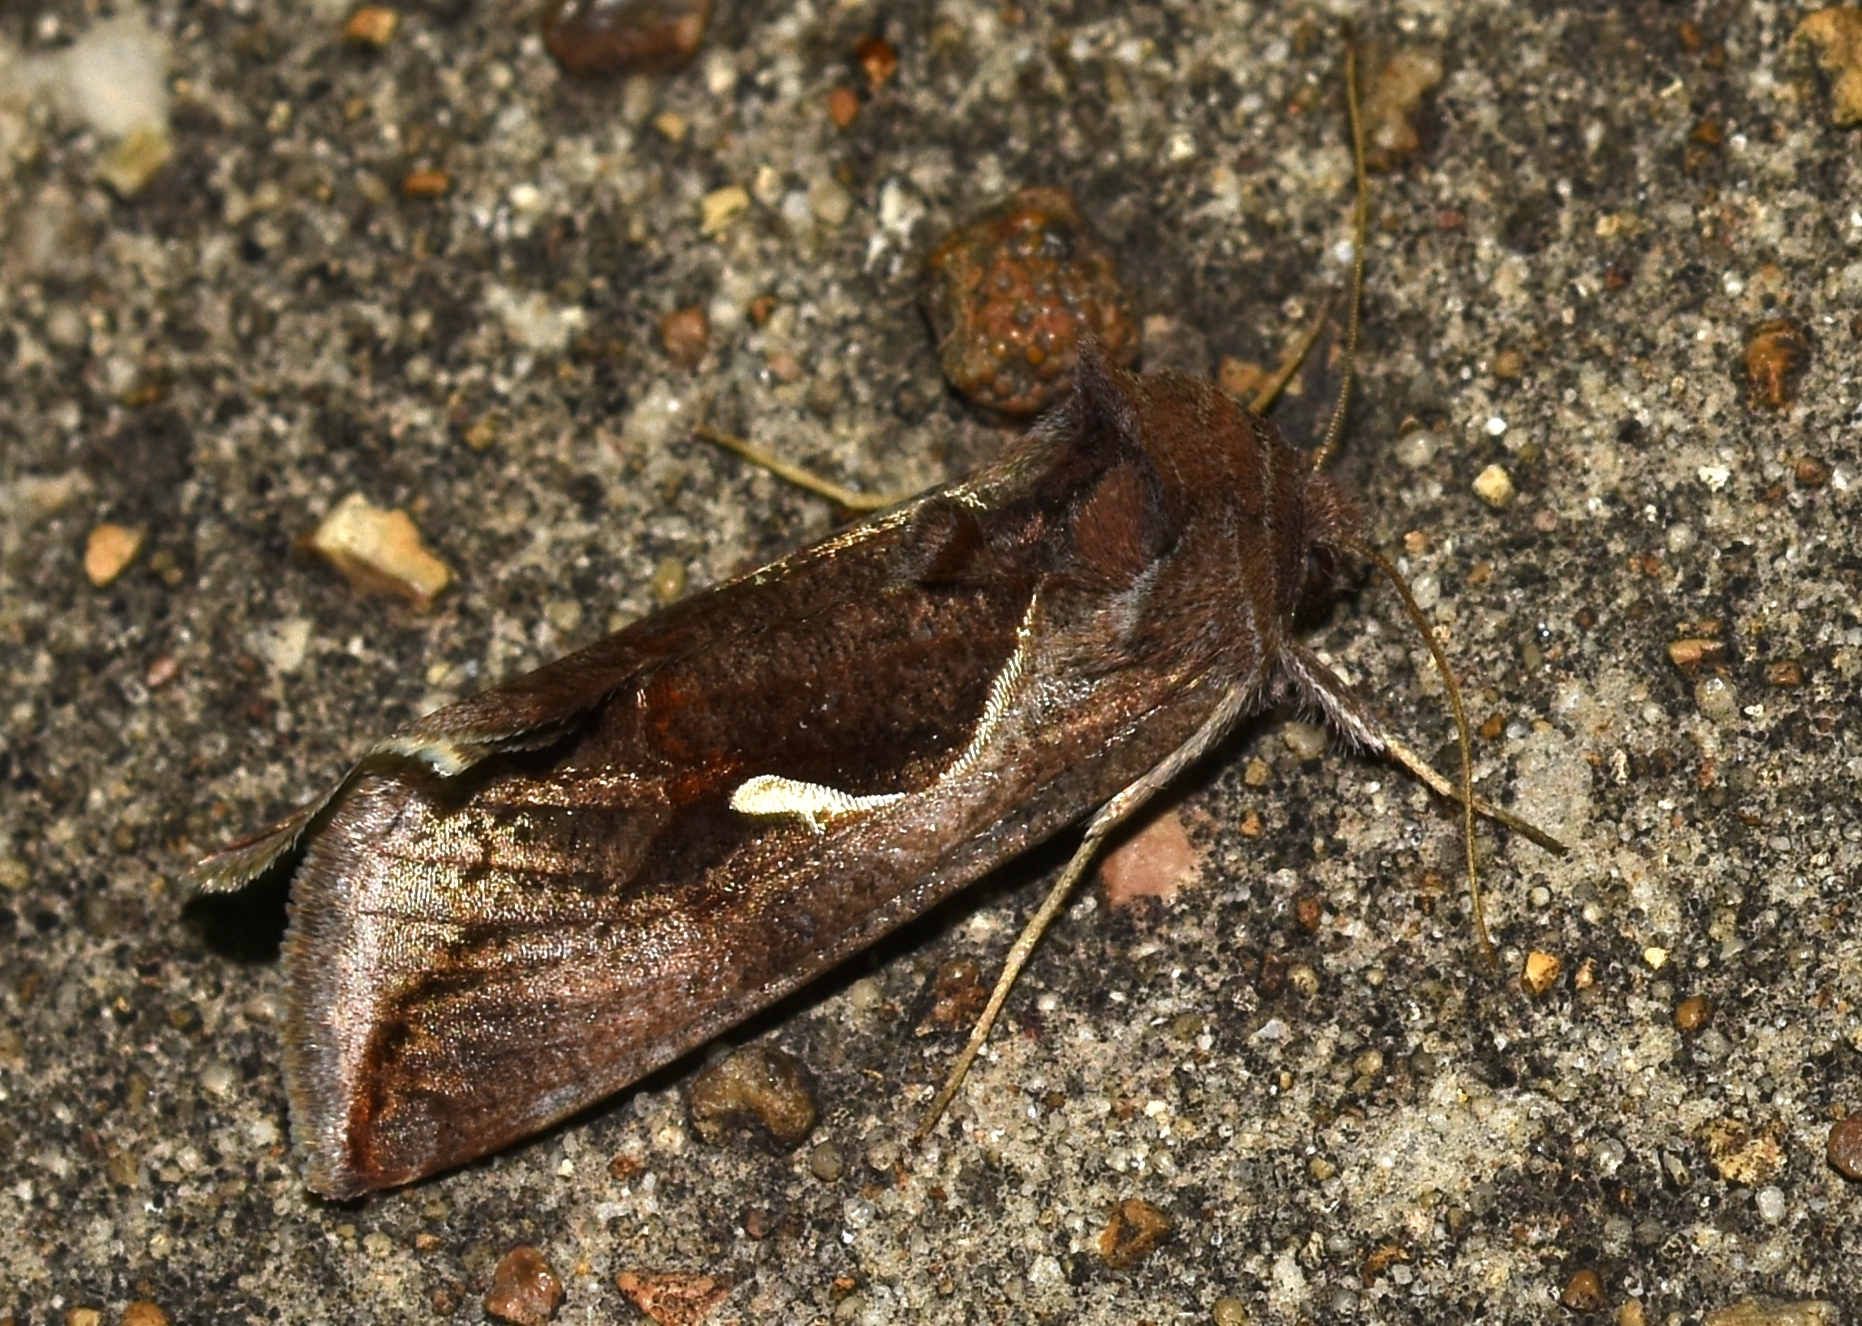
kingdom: Animalia
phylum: Arthropoda
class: Insecta
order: Lepidoptera
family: Noctuidae
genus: Anagrapha
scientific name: Anagrapha falcifera
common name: Celery looper
